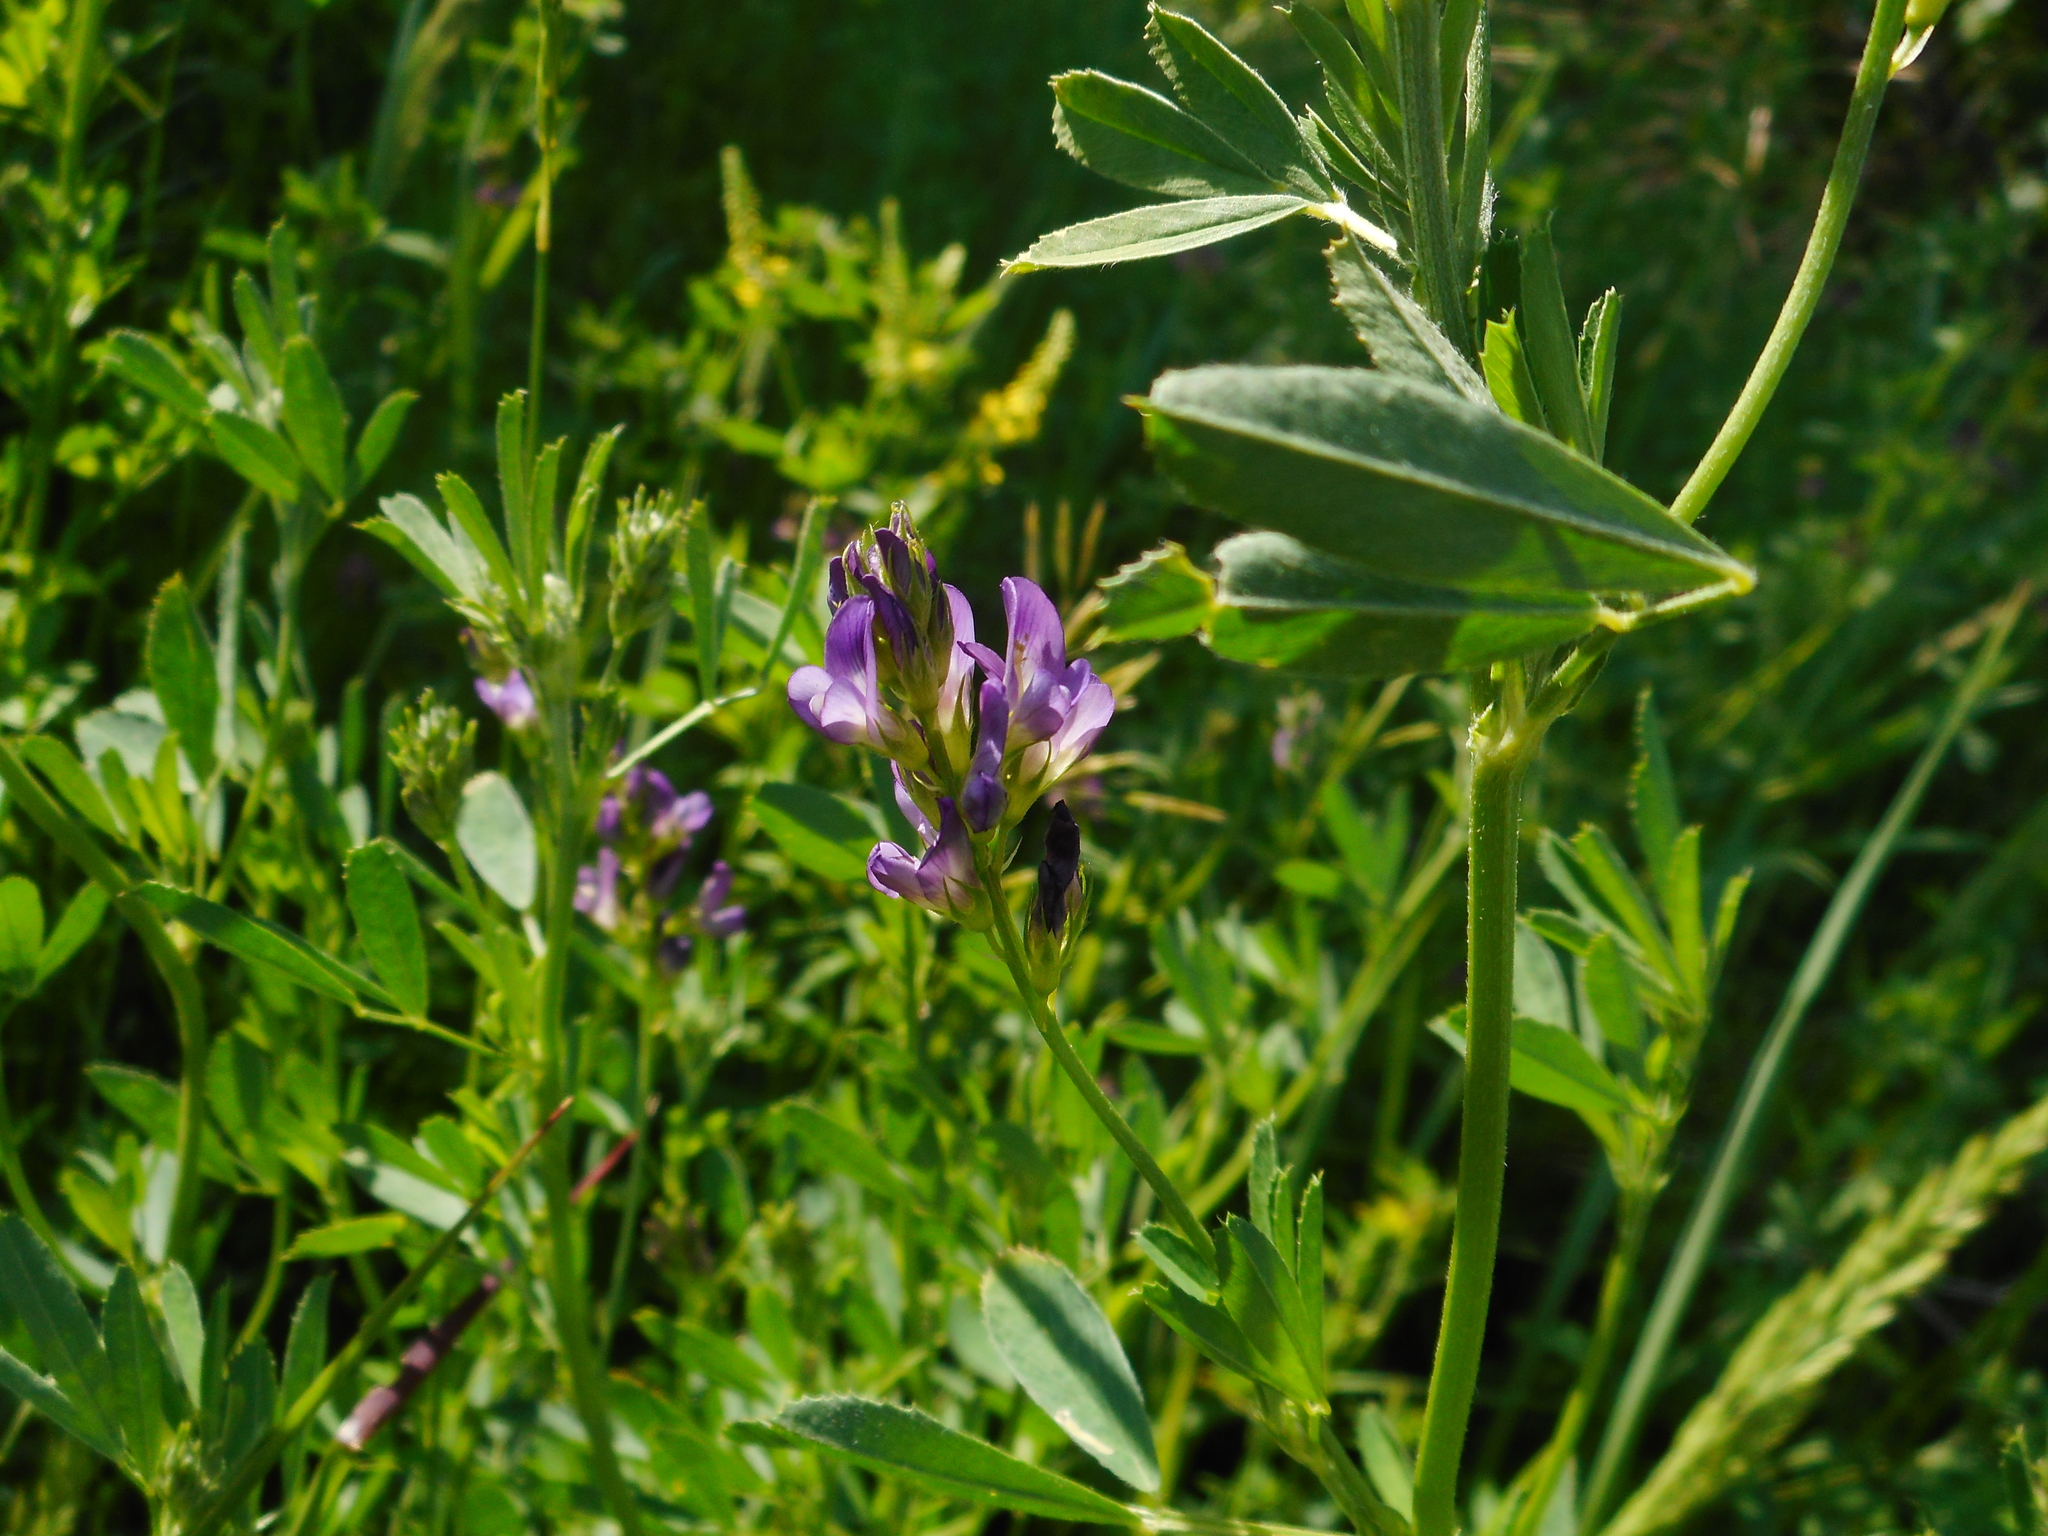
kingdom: Plantae
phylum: Tracheophyta
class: Magnoliopsida
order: Fabales
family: Fabaceae
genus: Medicago
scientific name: Medicago sativa
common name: Alfalfa
